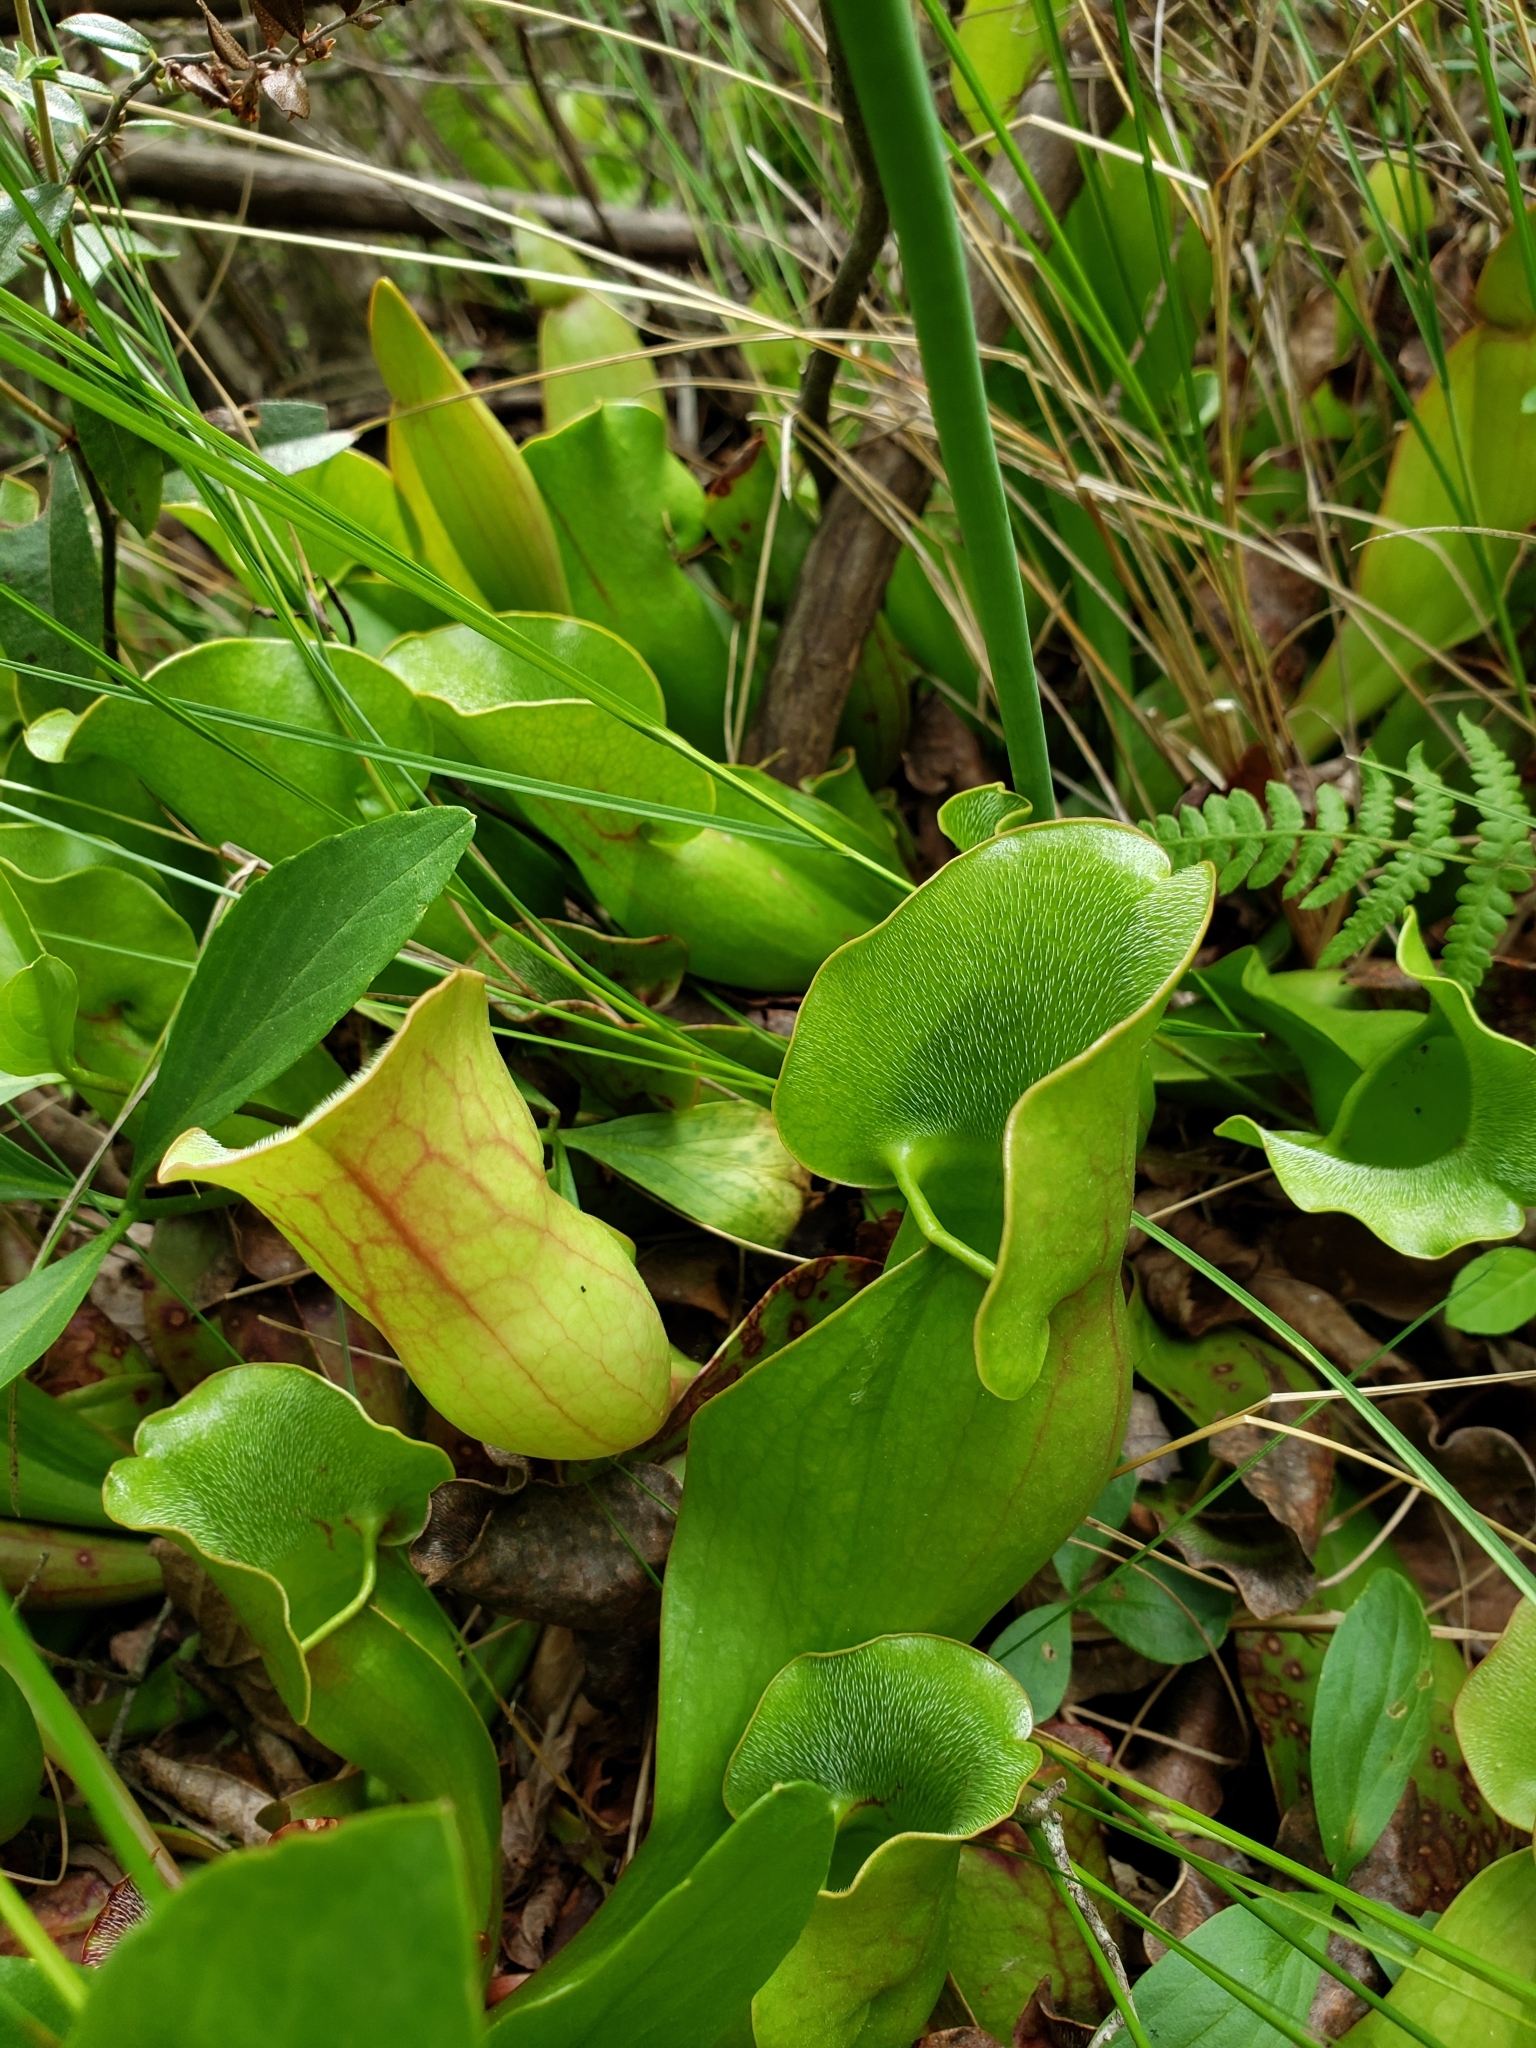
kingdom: Plantae
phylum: Tracheophyta
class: Magnoliopsida
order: Ericales
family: Sarraceniaceae
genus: Sarracenia
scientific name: Sarracenia purpurea
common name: Pitcherplant
